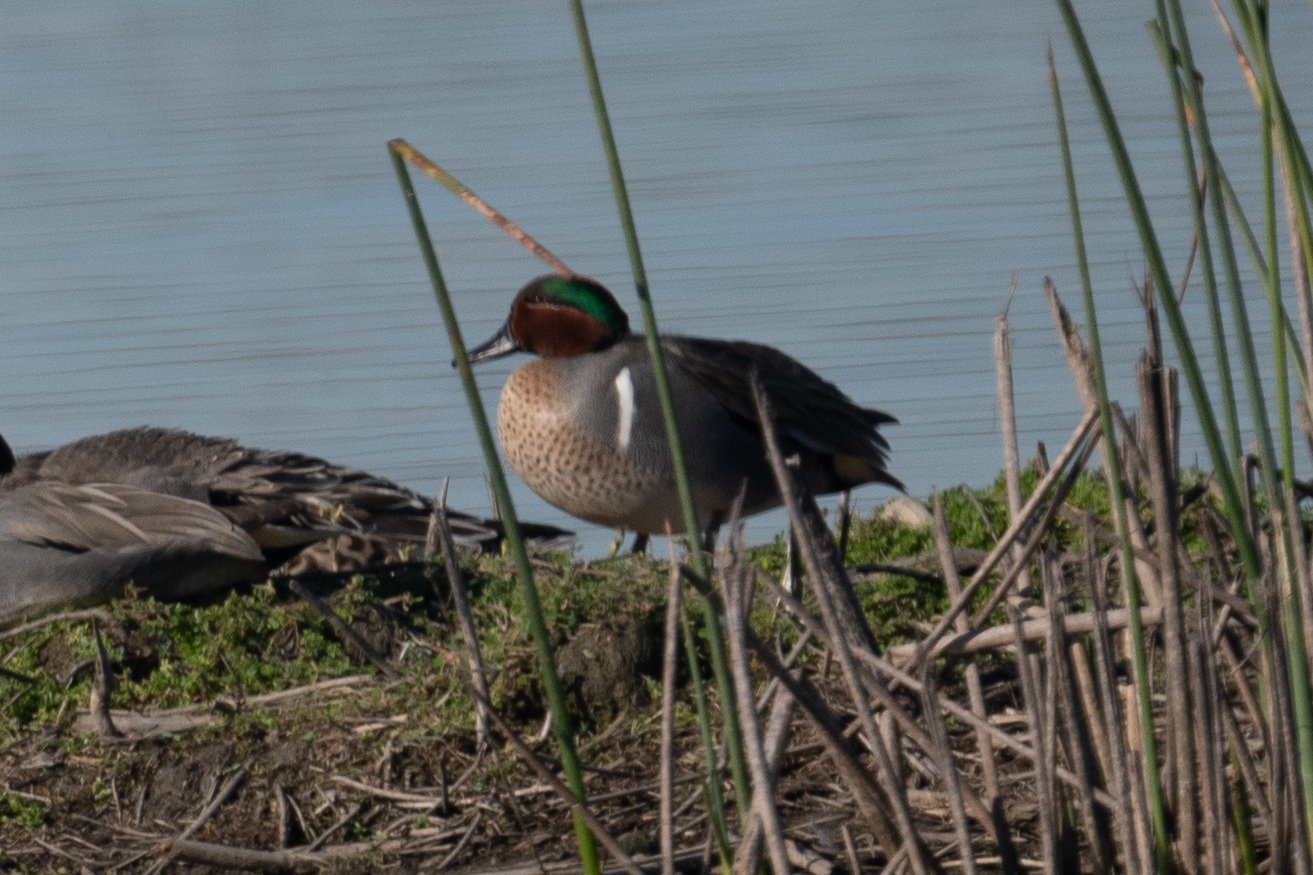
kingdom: Animalia
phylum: Chordata
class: Aves
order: Anseriformes
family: Anatidae
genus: Anas
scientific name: Anas crecca
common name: Eurasian teal
